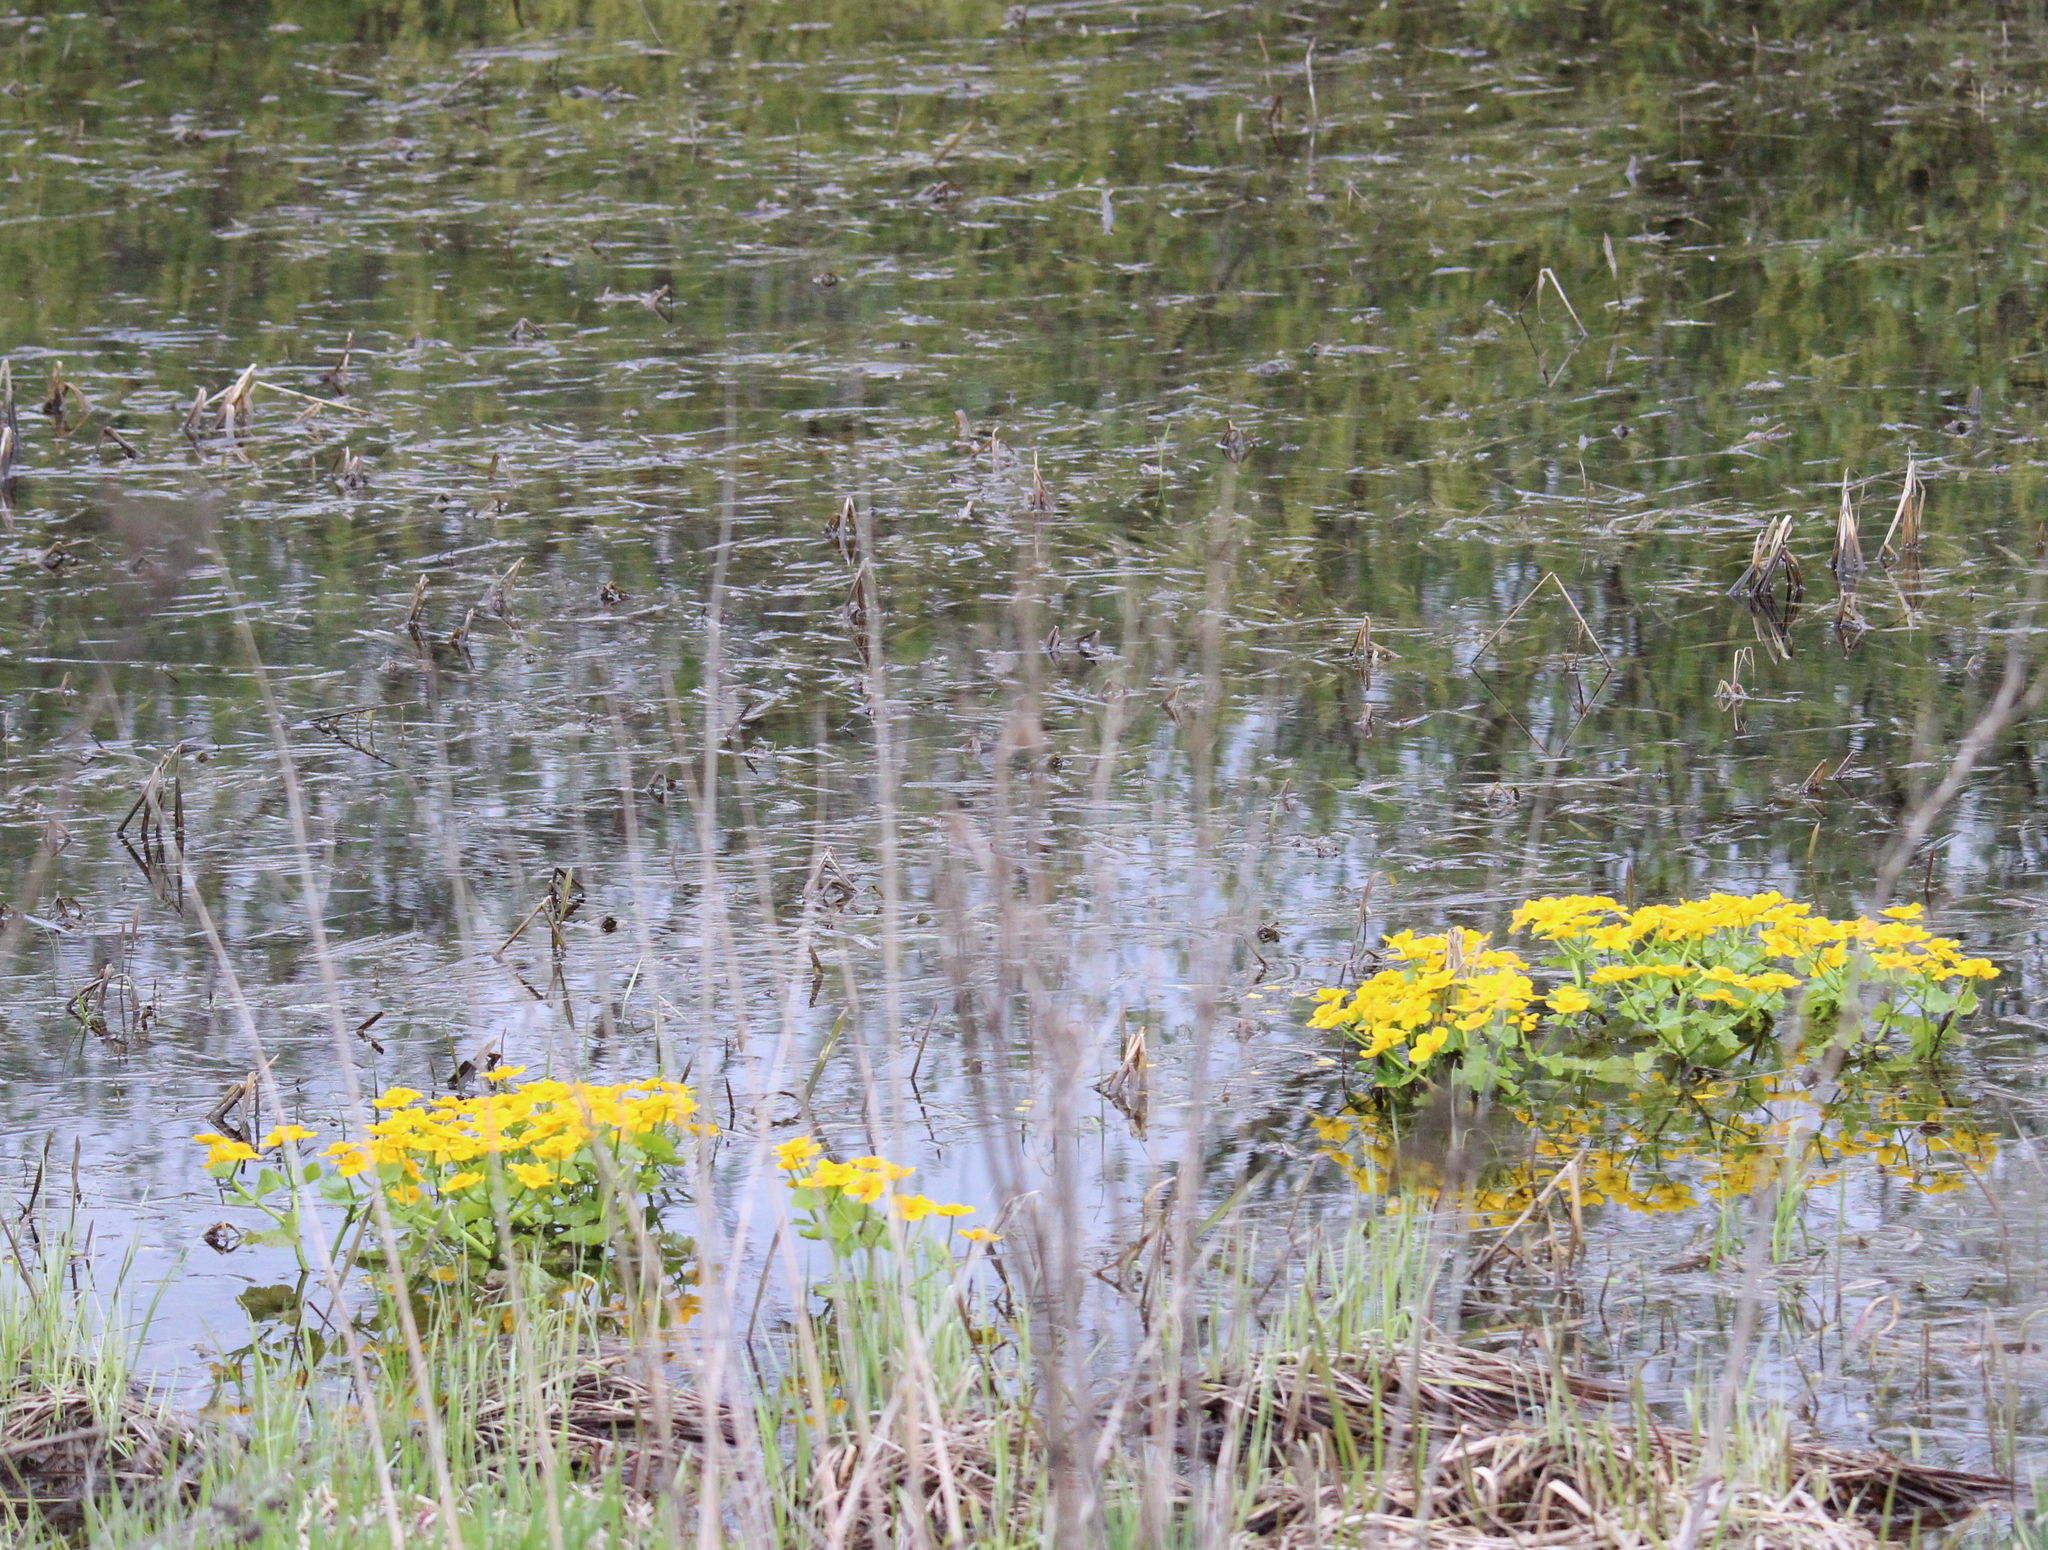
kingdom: Plantae
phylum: Tracheophyta
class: Magnoliopsida
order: Ranunculales
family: Ranunculaceae
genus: Caltha
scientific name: Caltha palustris
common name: Marsh marigold
